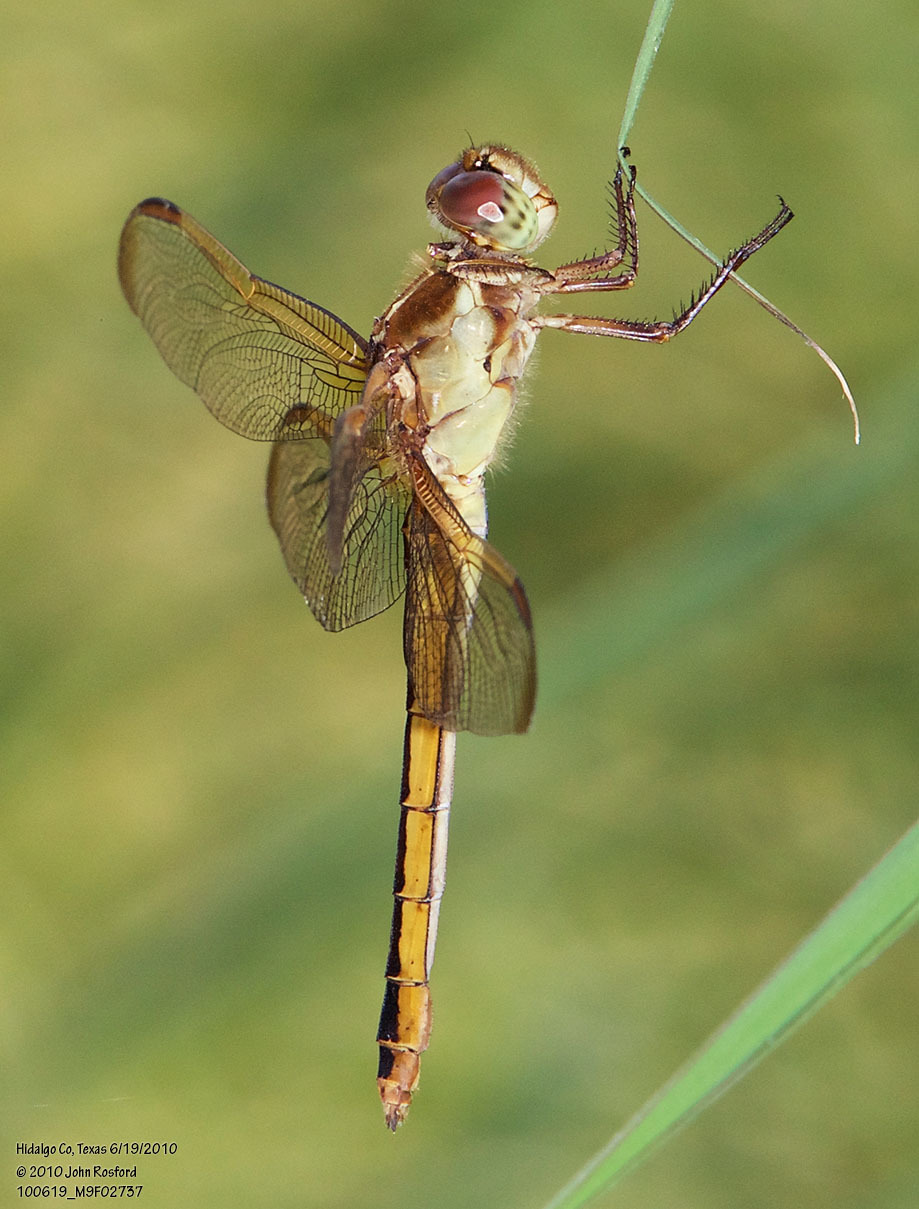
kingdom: Animalia
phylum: Arthropoda
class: Insecta
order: Odonata
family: Libellulidae
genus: Libellula
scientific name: Libellula needhami
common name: Needham's skimmer
